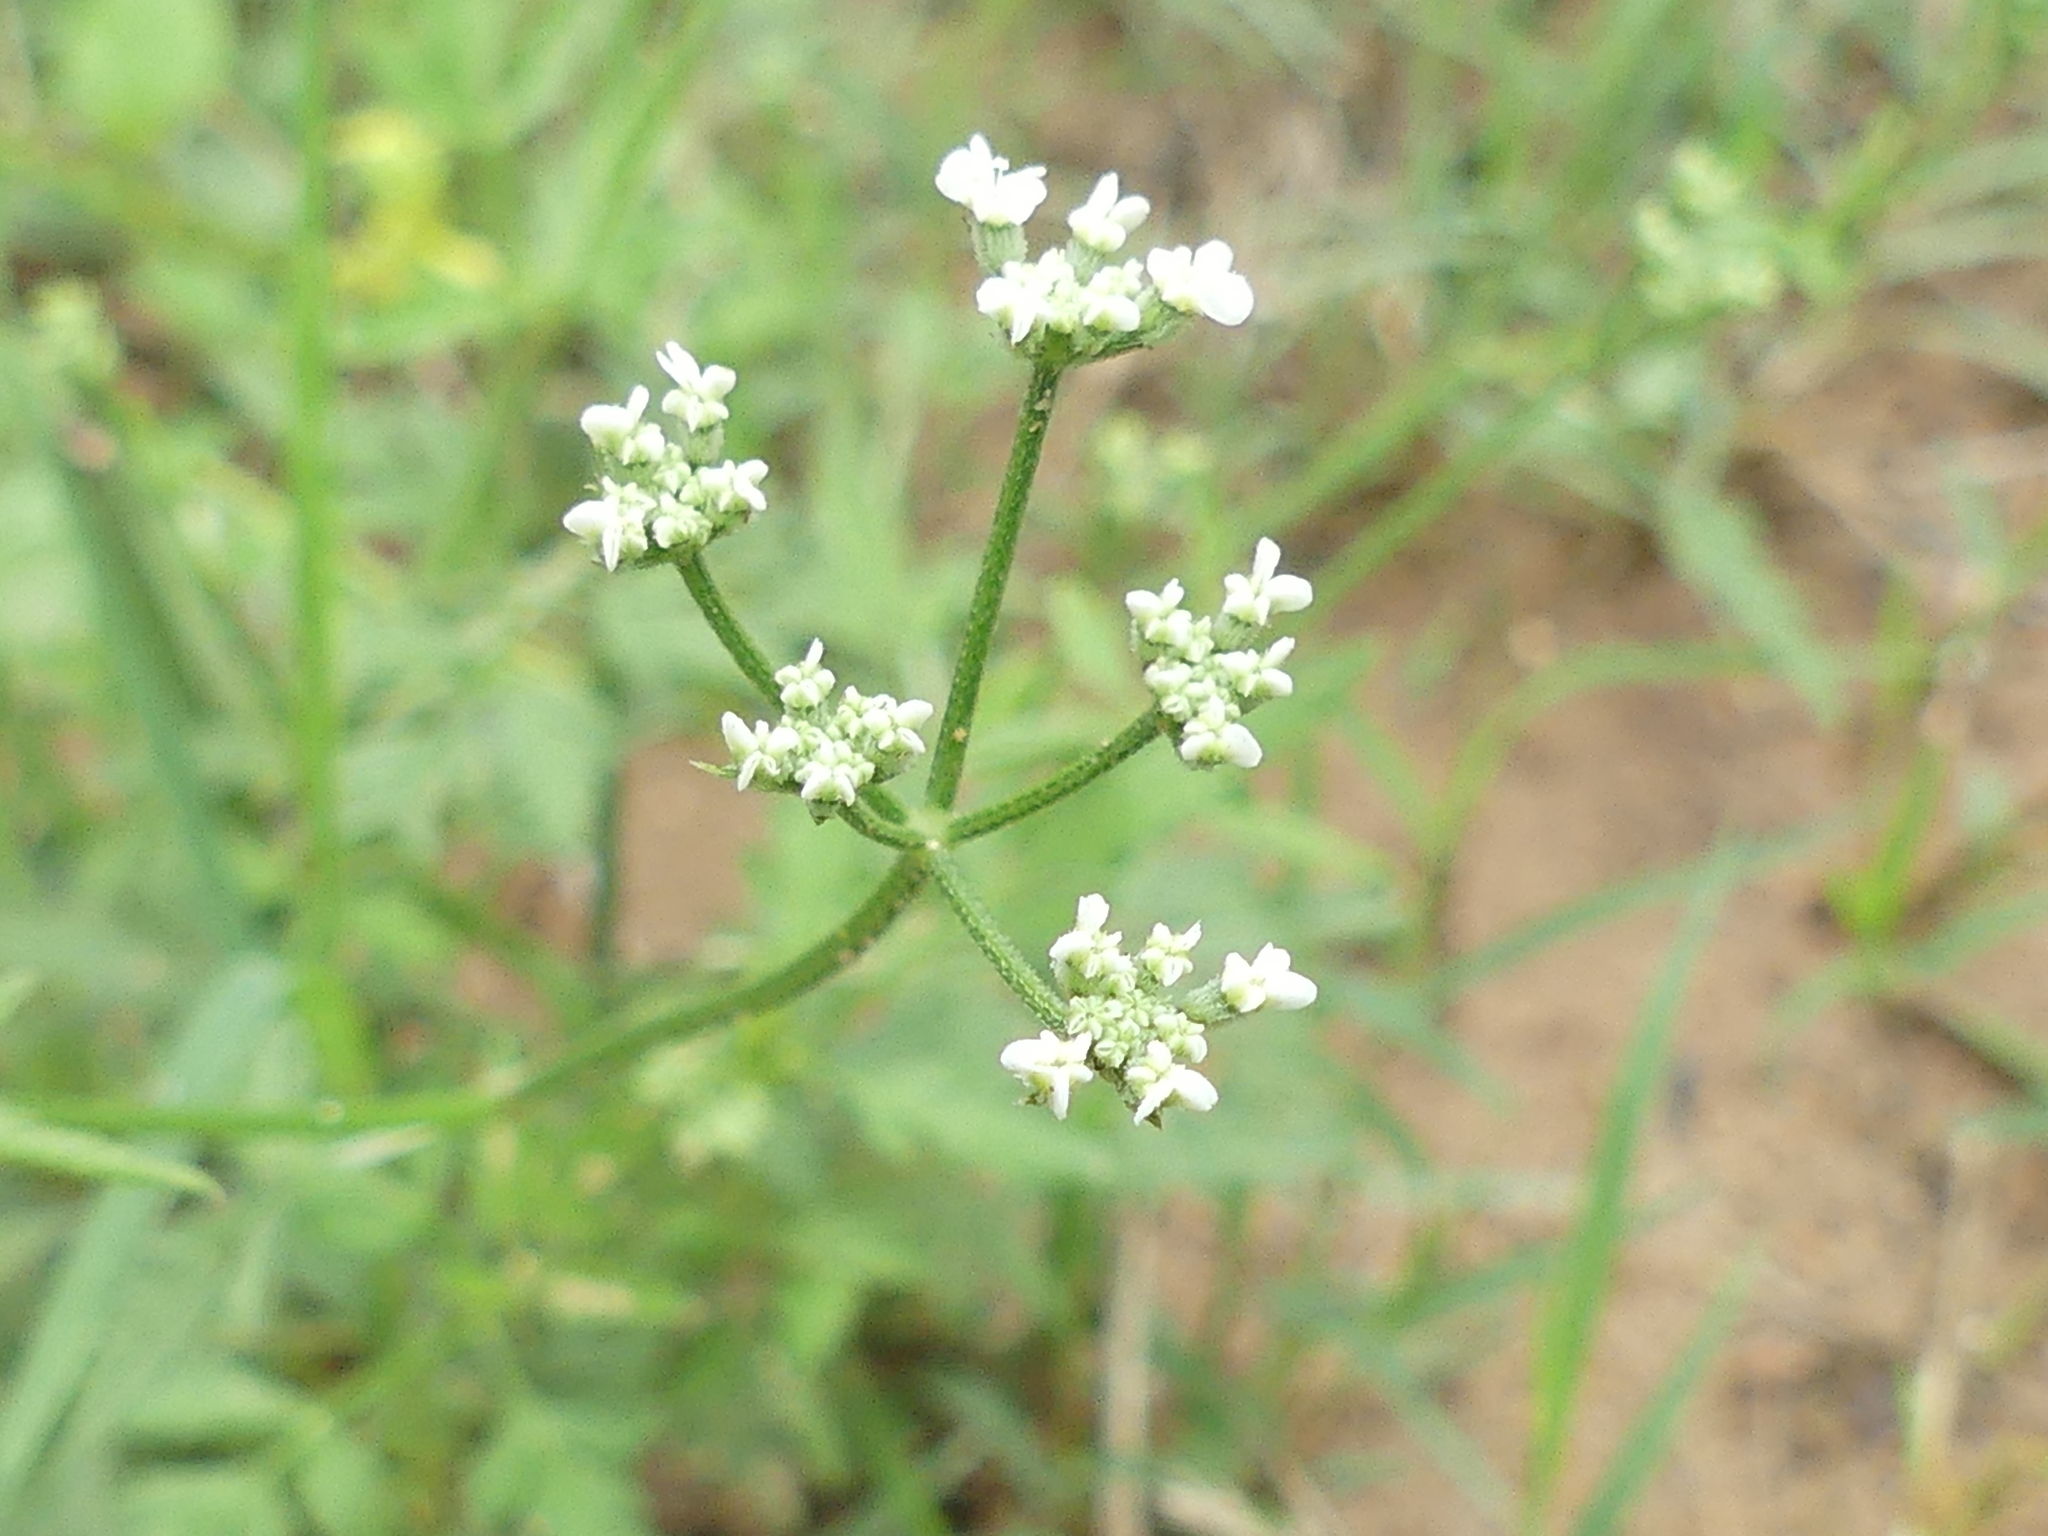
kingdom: Plantae
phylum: Tracheophyta
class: Magnoliopsida
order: Apiales
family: Apiaceae
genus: Torilis
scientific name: Torilis arvensis
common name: Spreading hedge-parsley
